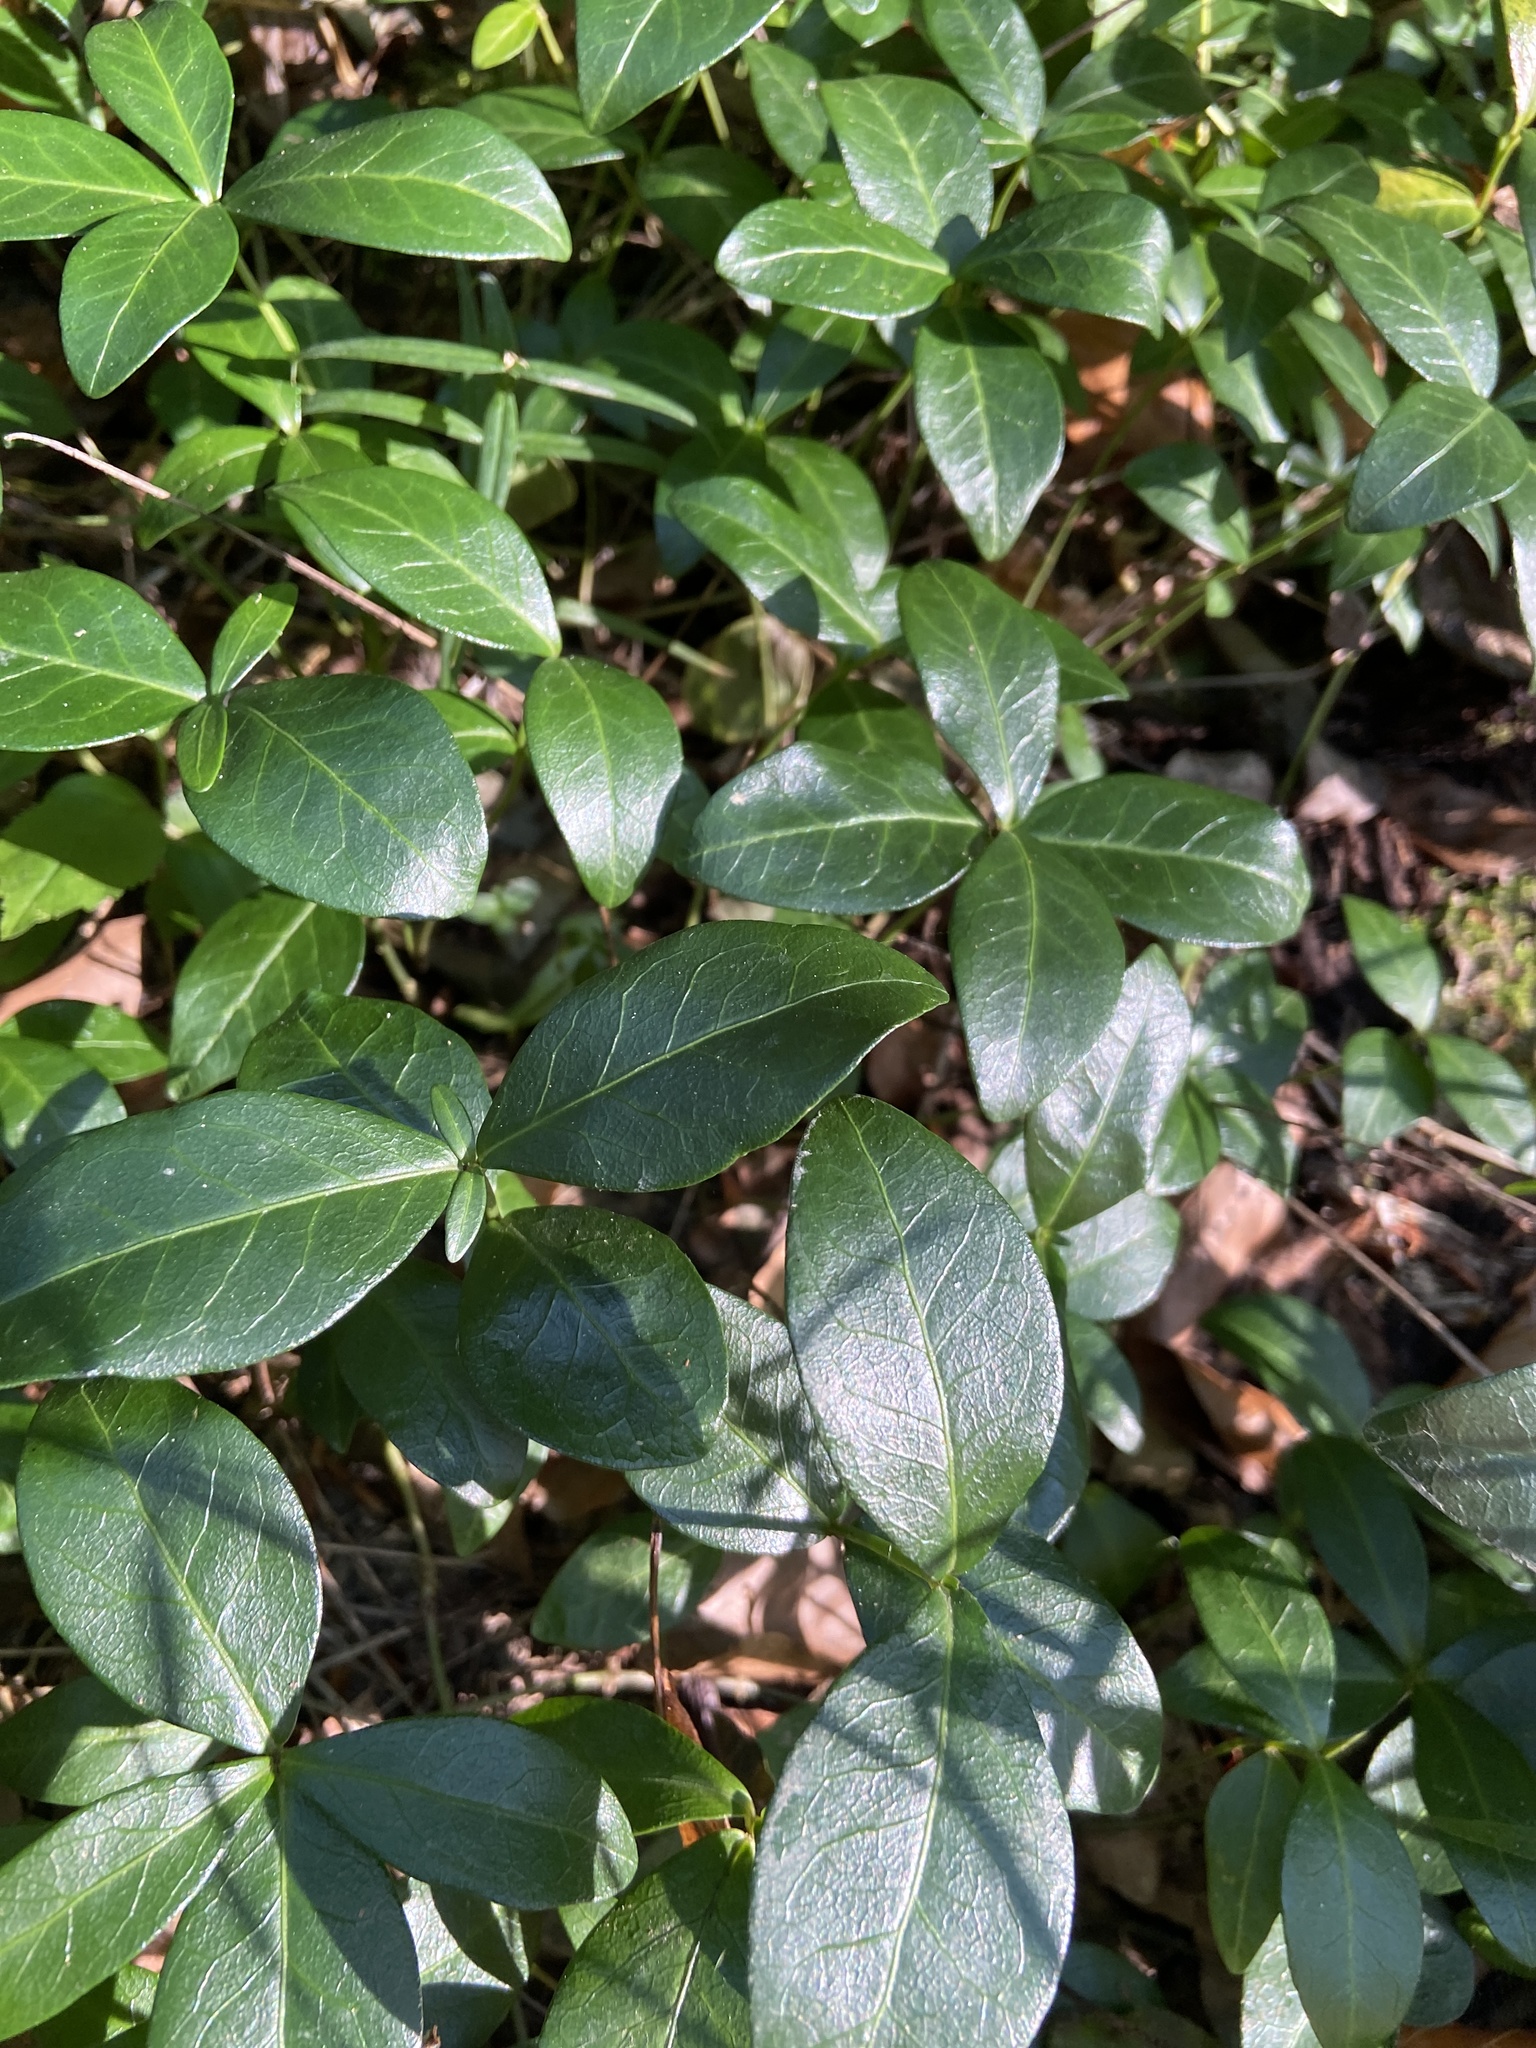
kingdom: Plantae
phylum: Tracheophyta
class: Magnoliopsida
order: Gentianales
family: Apocynaceae
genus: Vinca
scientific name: Vinca minor
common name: Lesser periwinkle
